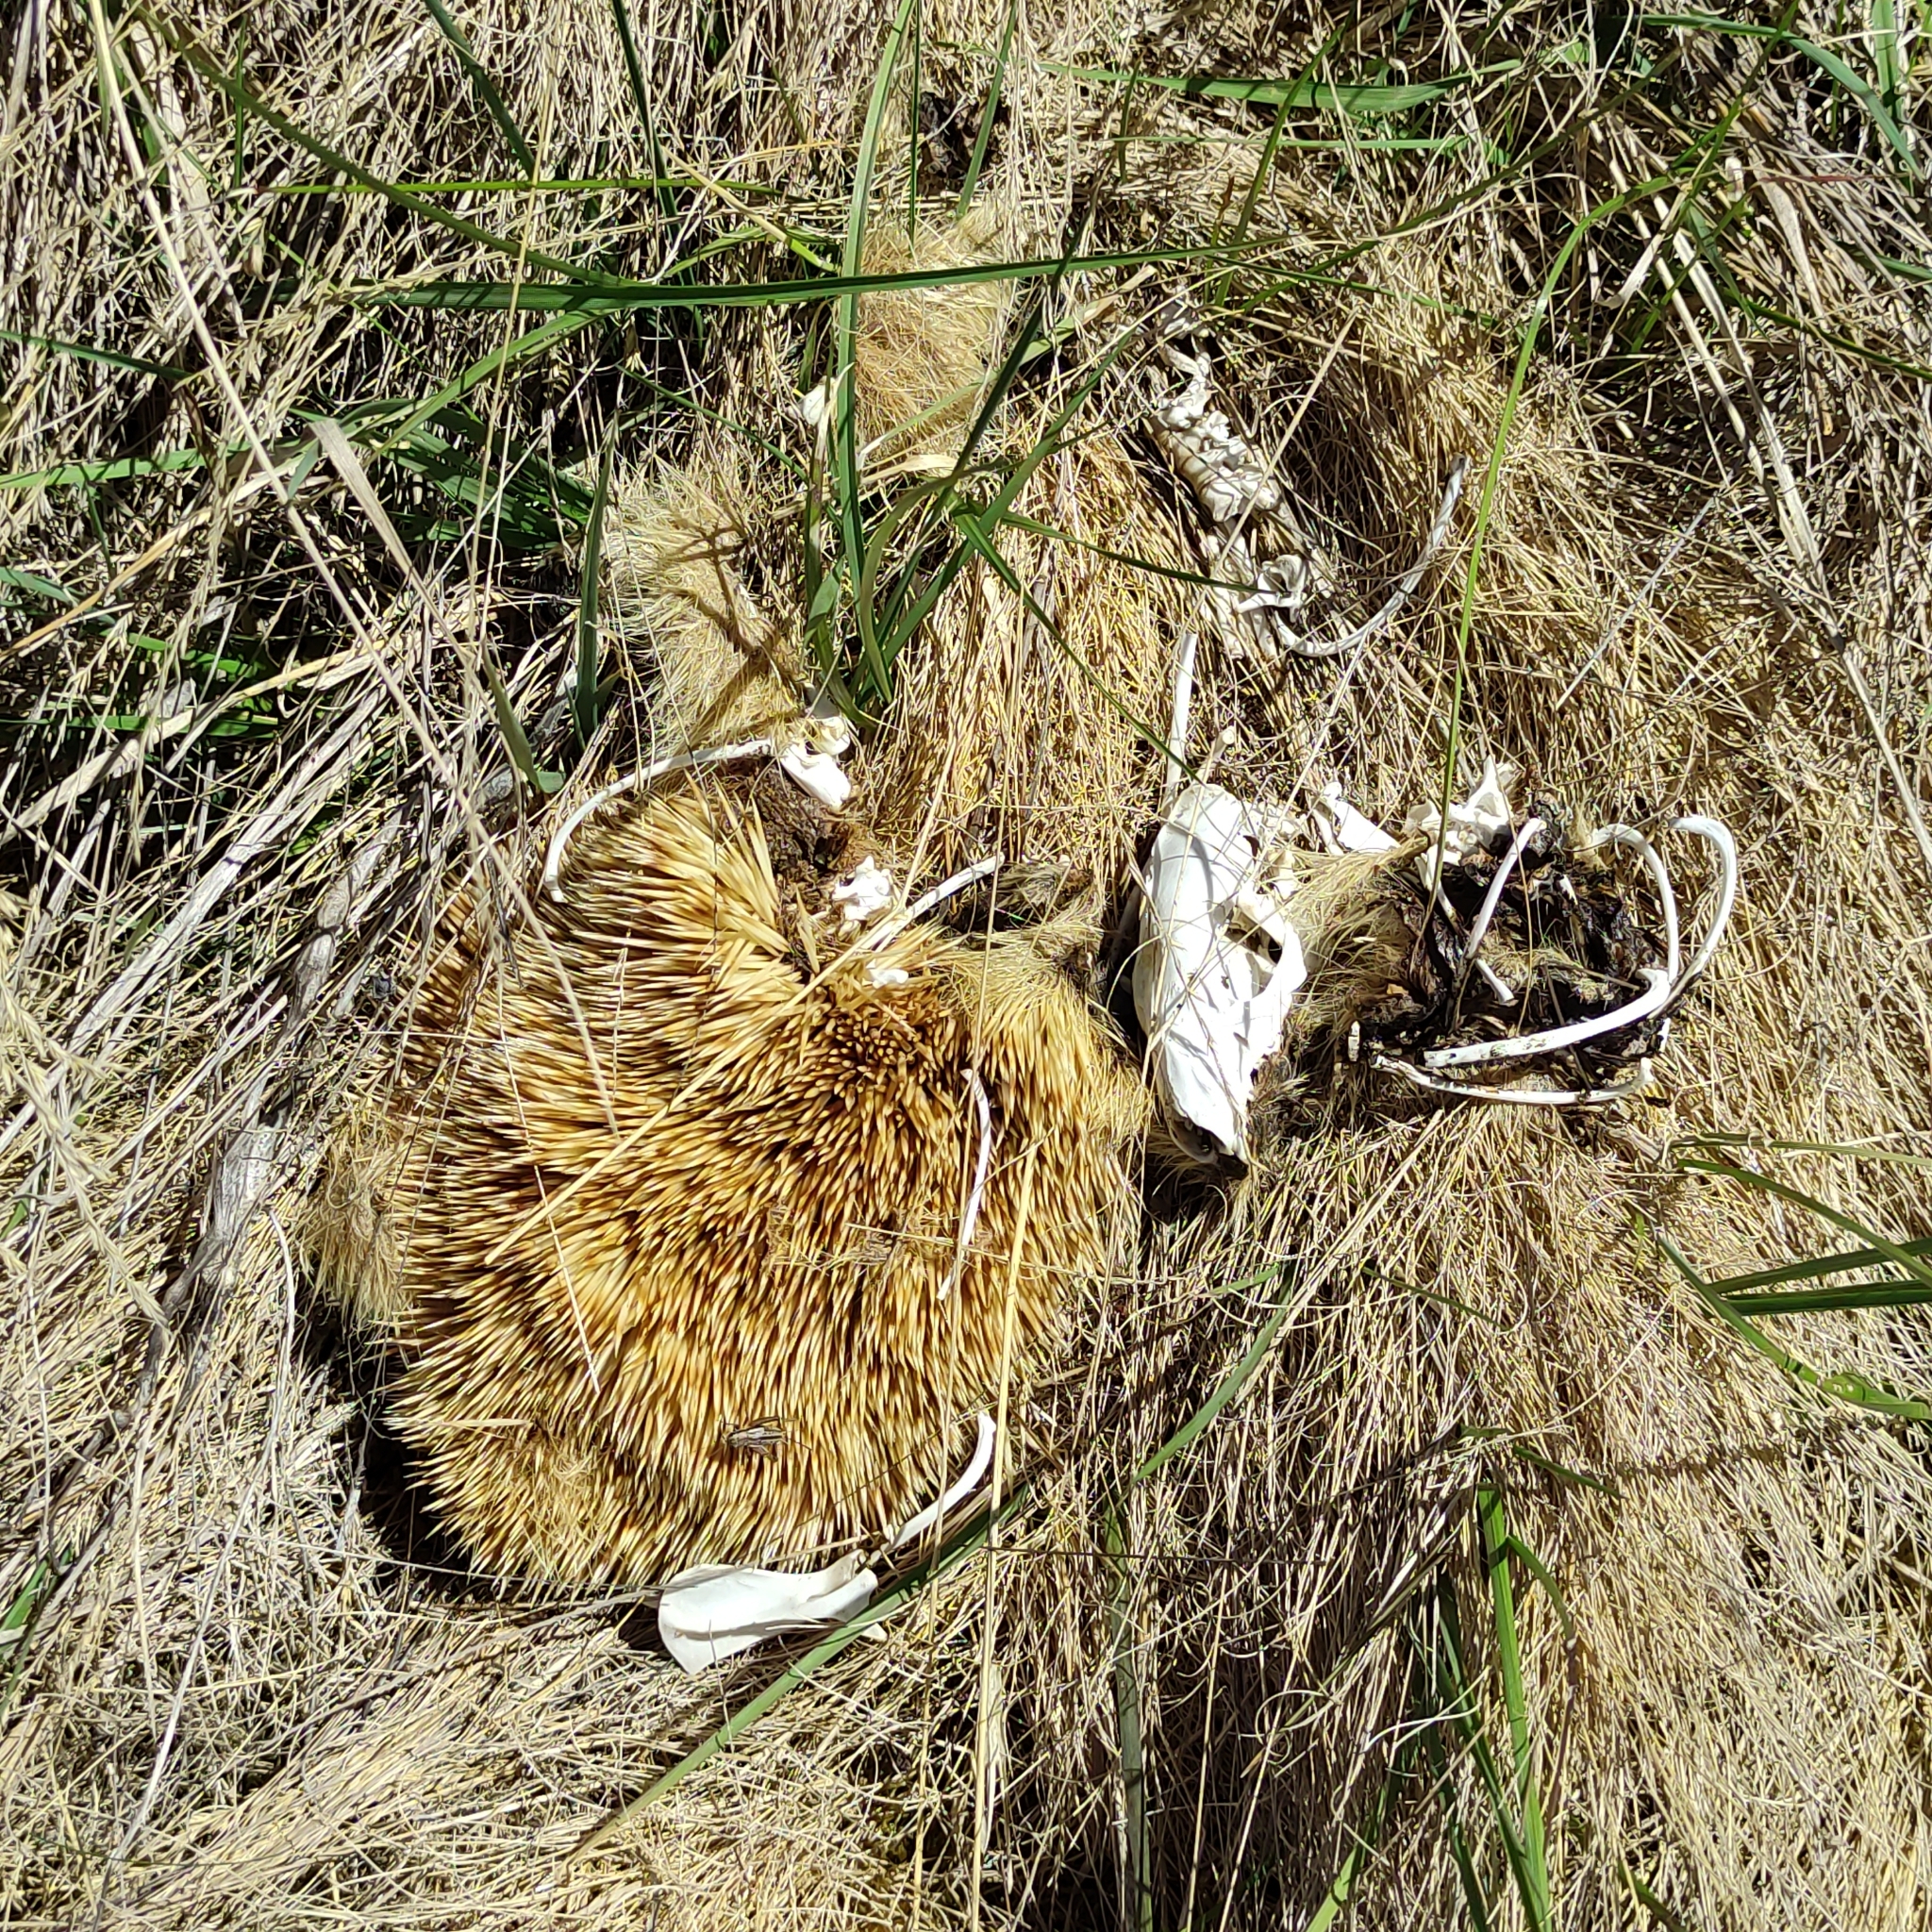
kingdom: Animalia
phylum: Chordata
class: Mammalia
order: Erinaceomorpha
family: Erinaceidae
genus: Erinaceus
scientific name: Erinaceus europaeus
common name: West european hedgehog
